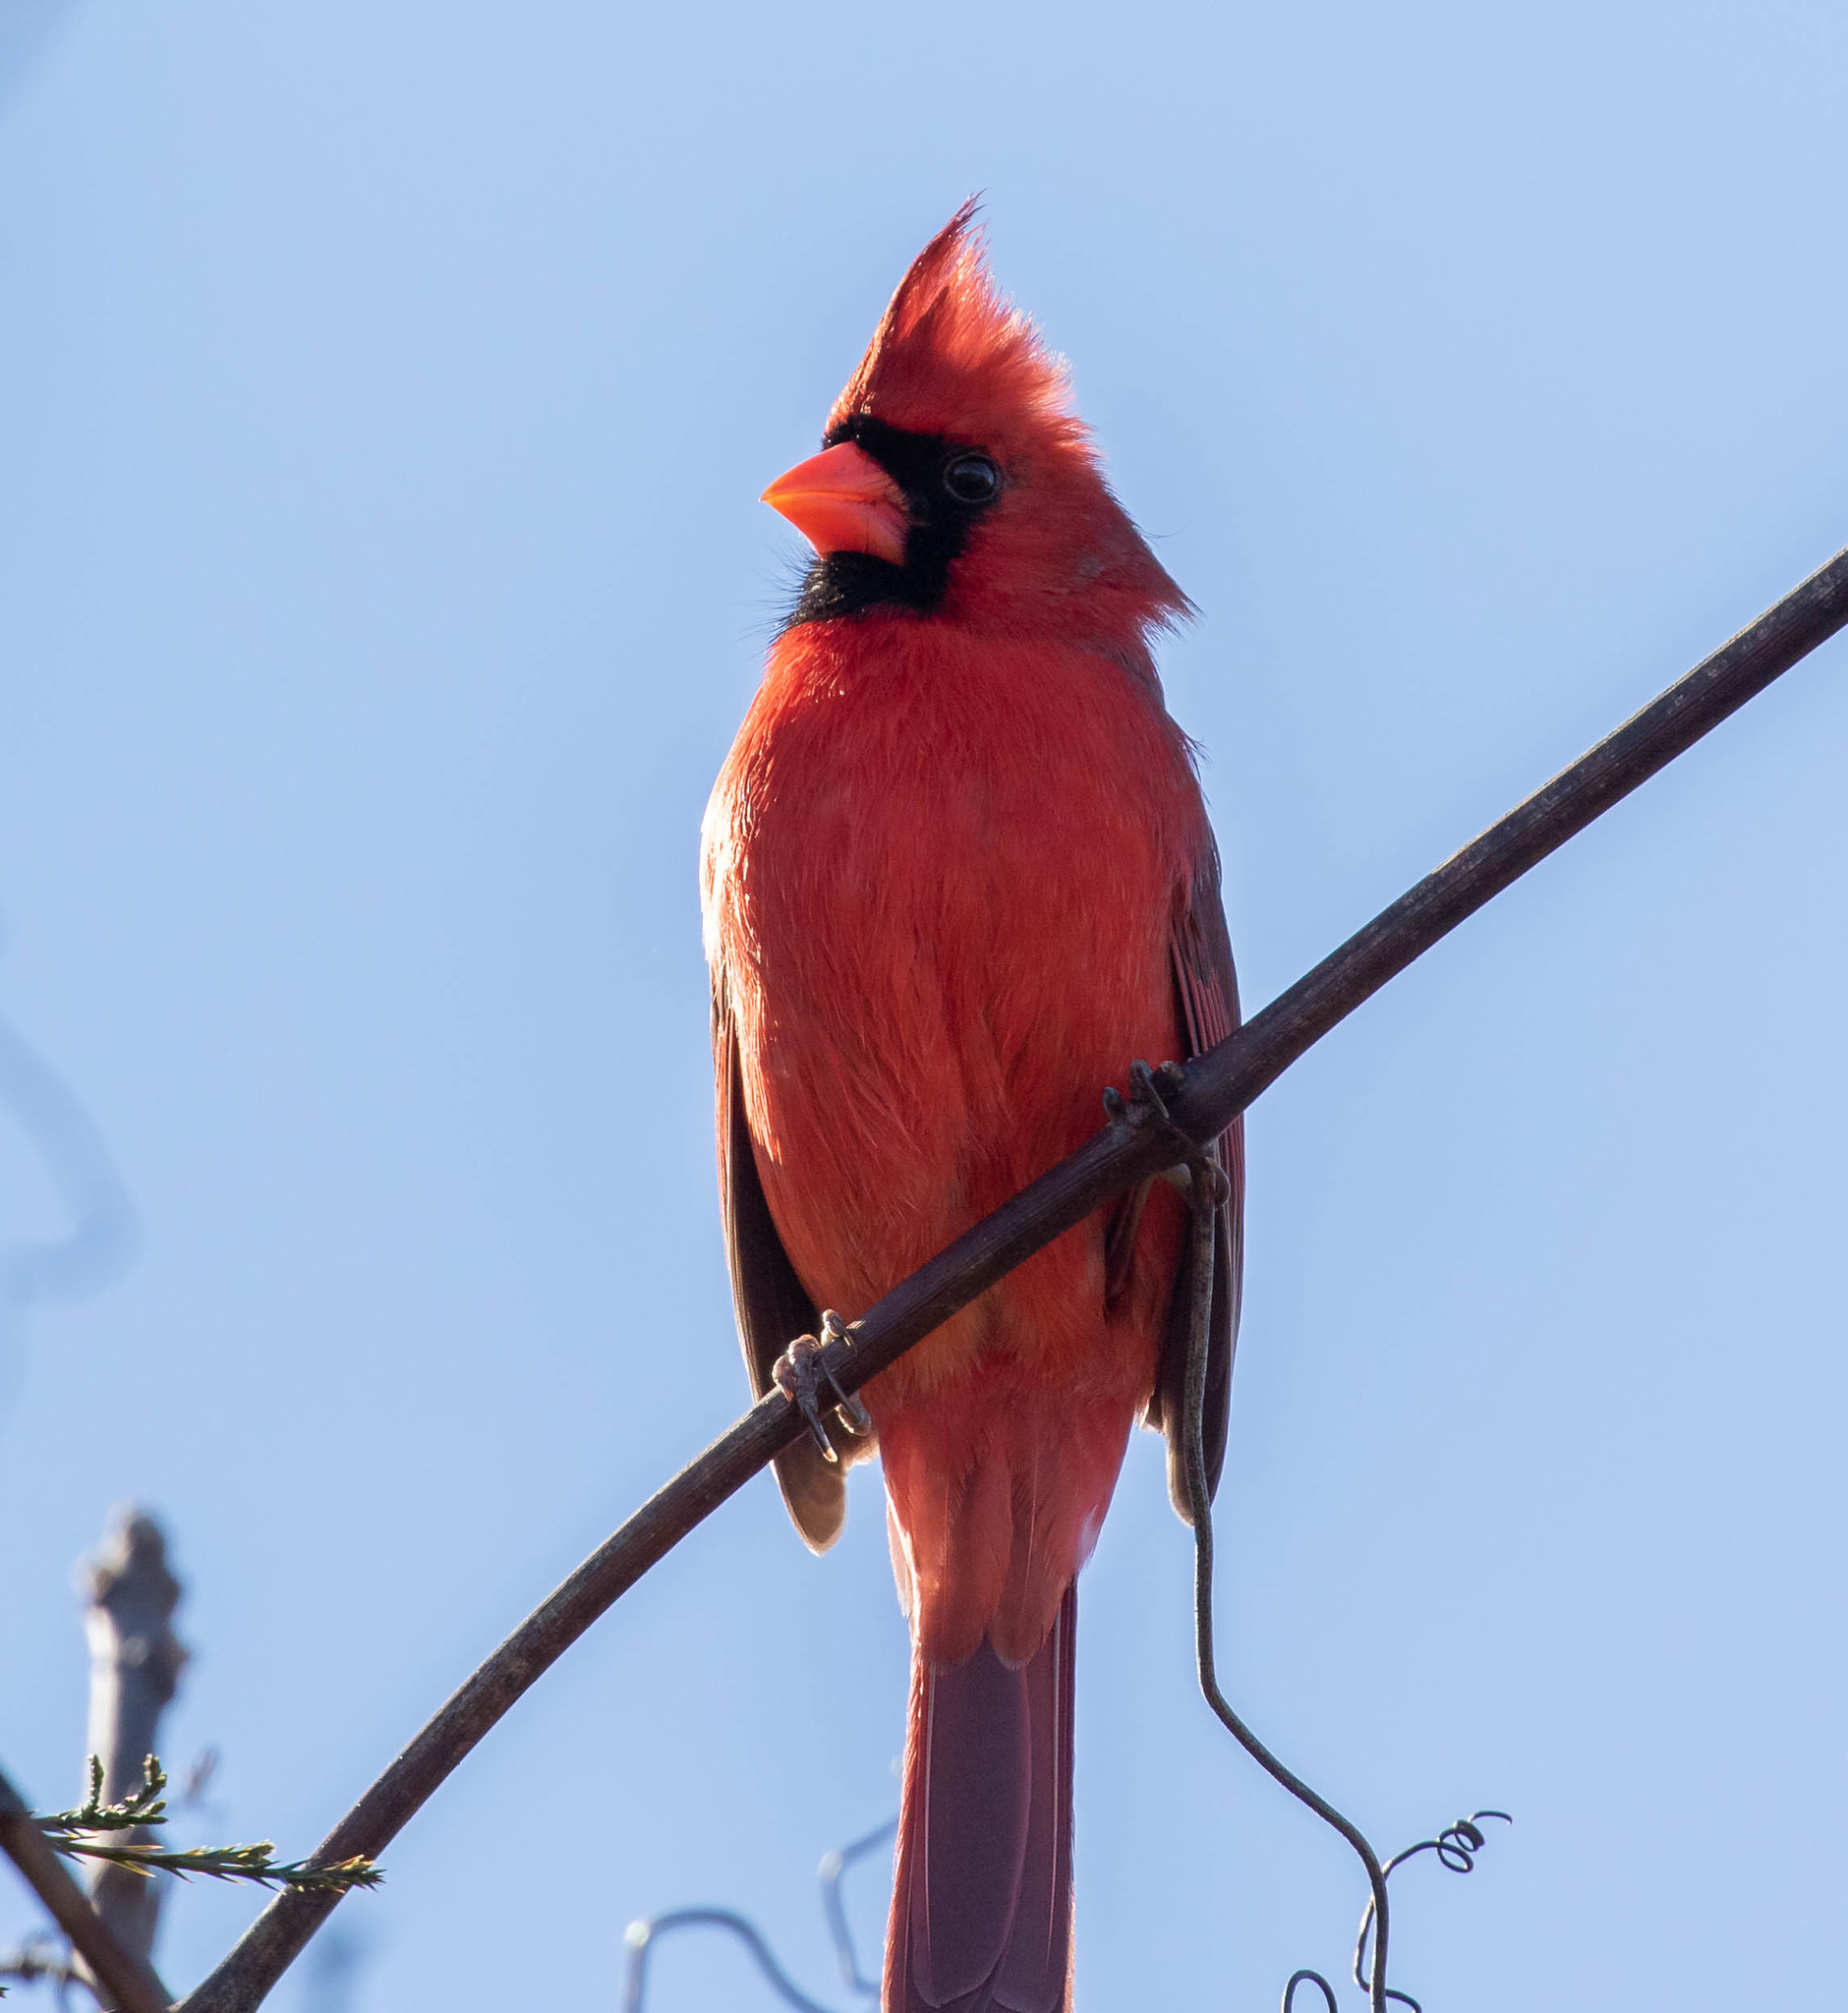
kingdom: Animalia
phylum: Chordata
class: Aves
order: Passeriformes
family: Cardinalidae
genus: Cardinalis
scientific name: Cardinalis cardinalis
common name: Northern cardinal
